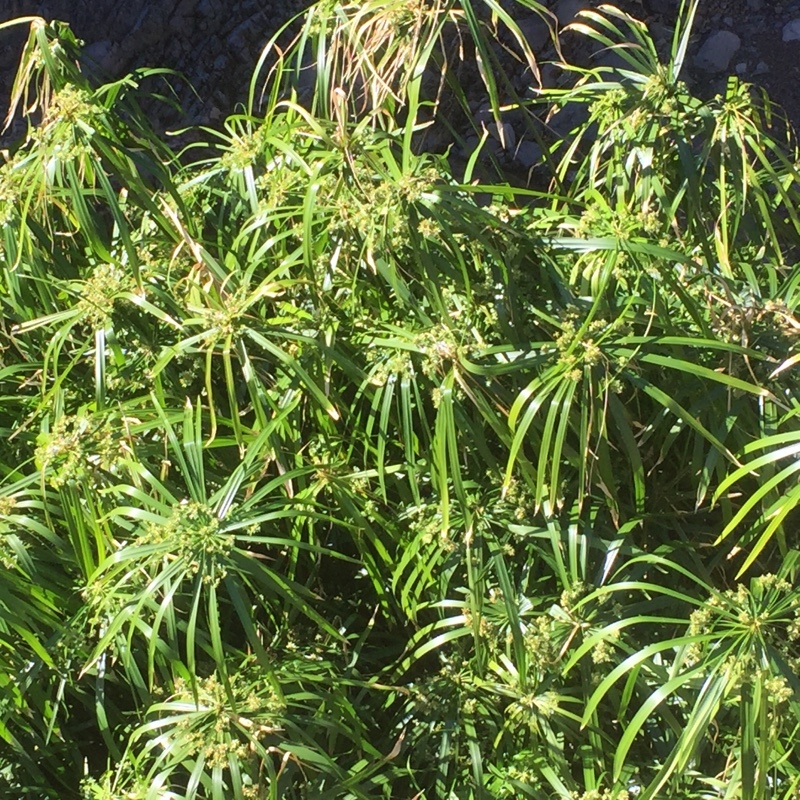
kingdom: Plantae
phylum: Tracheophyta
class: Liliopsida
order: Poales
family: Cyperaceae
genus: Cyperus
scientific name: Cyperus alternifolius
